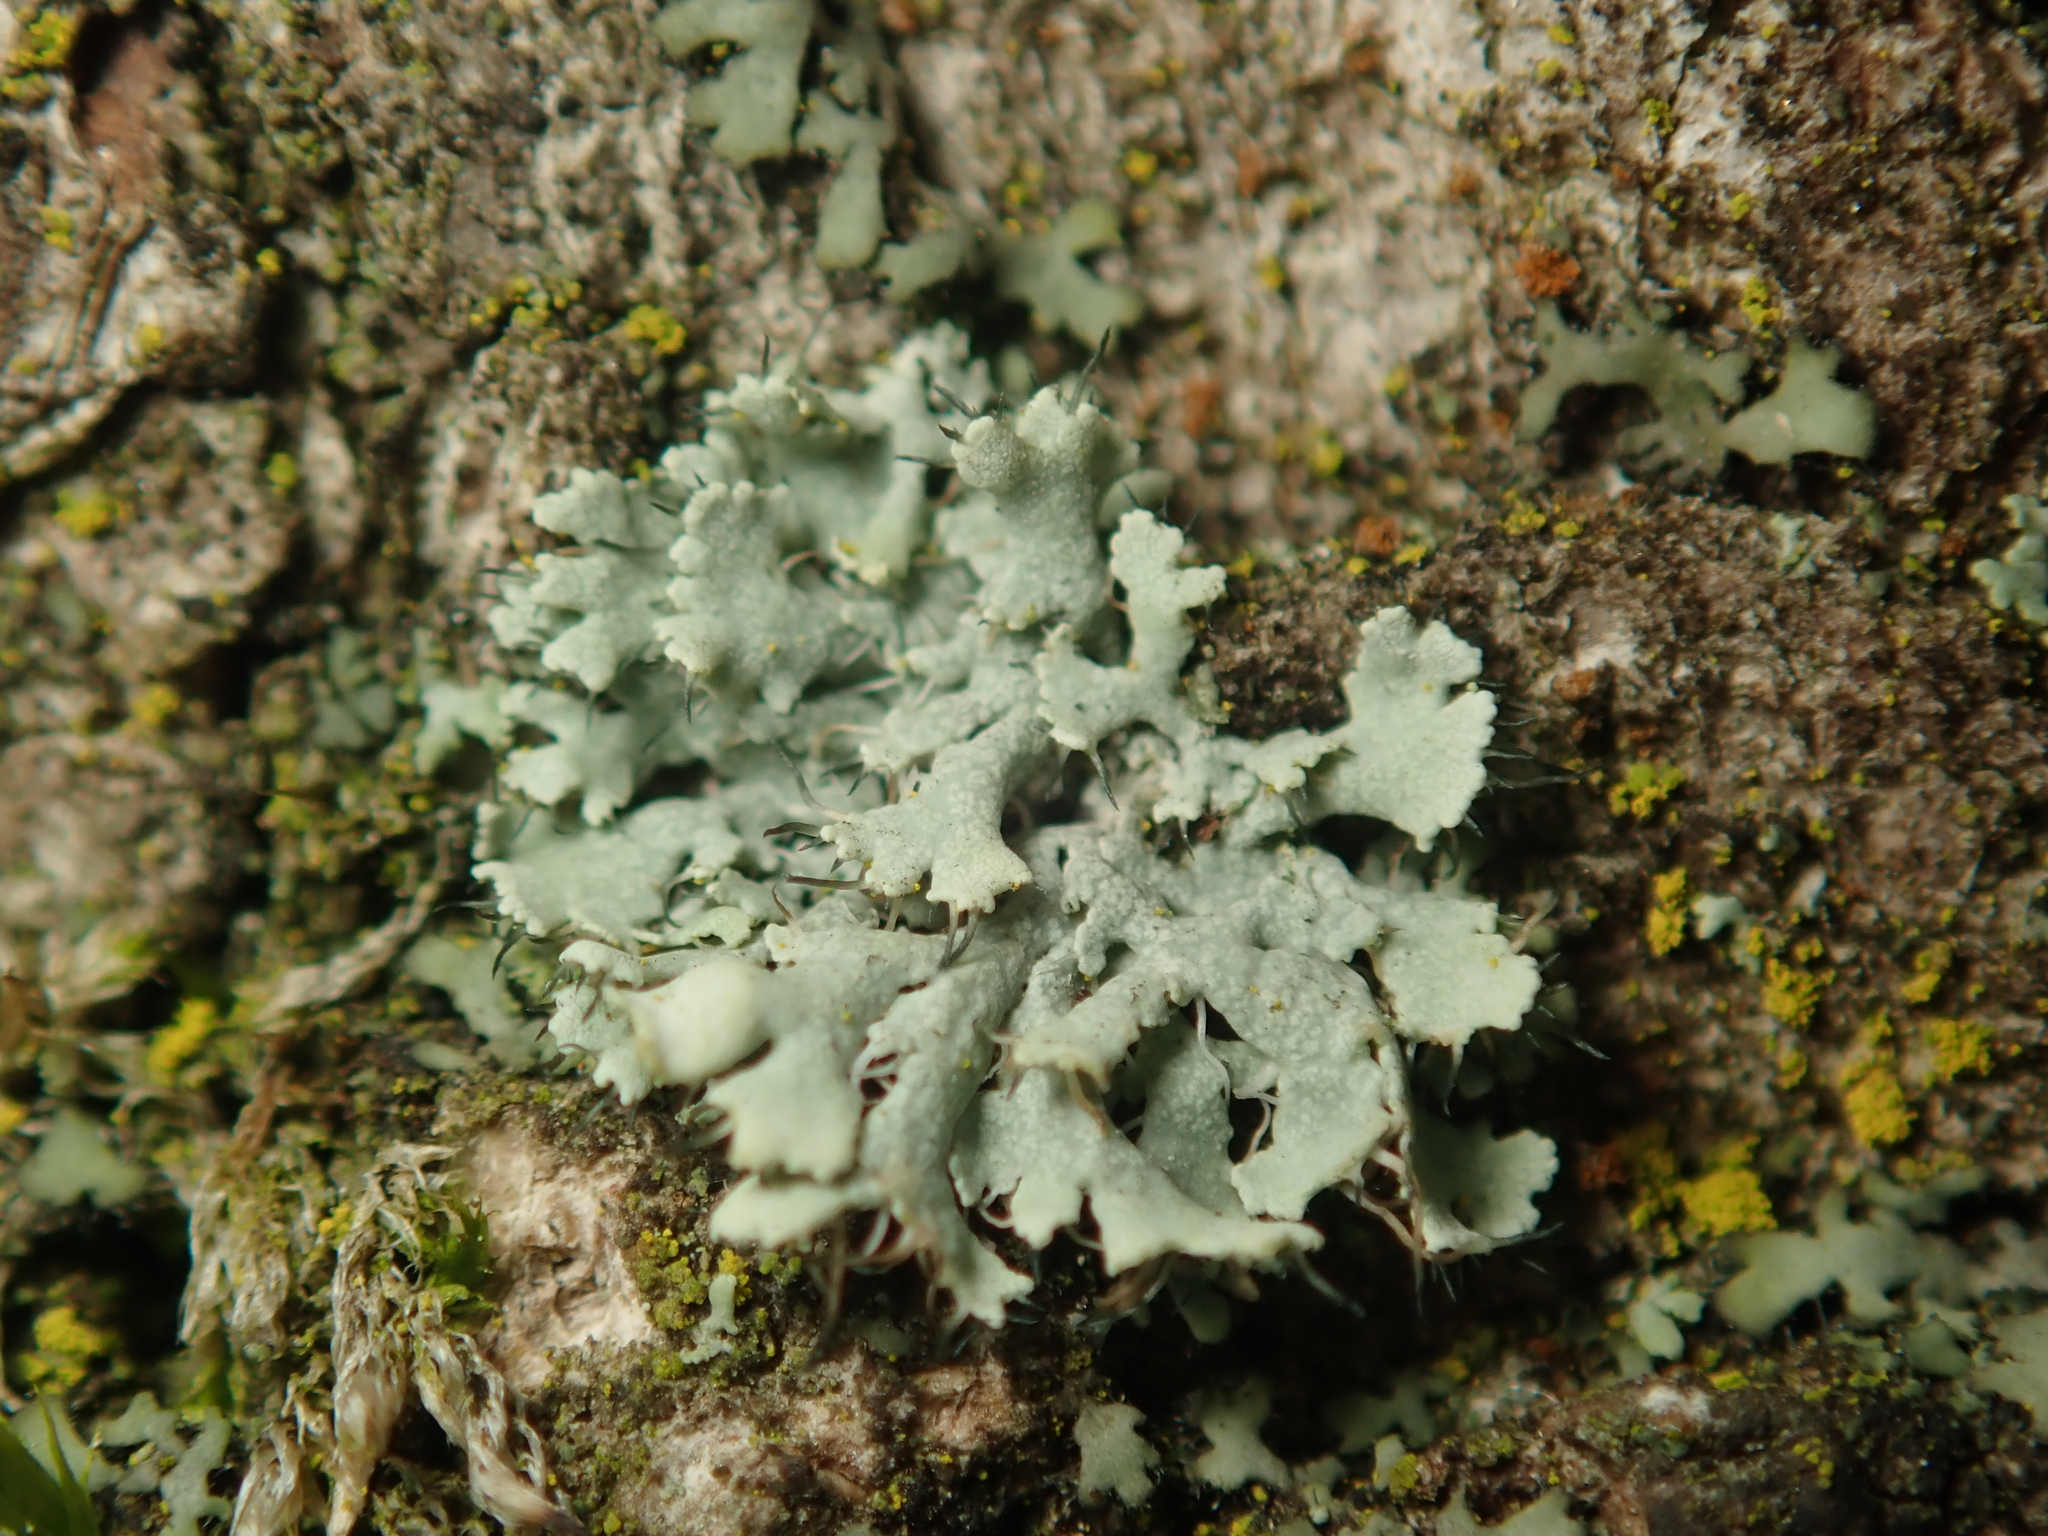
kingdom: Fungi
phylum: Ascomycota
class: Lecanoromycetes
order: Caliciales
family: Physciaceae
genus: Physcia
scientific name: Physcia adscendens
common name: Hooded rosette lichen
